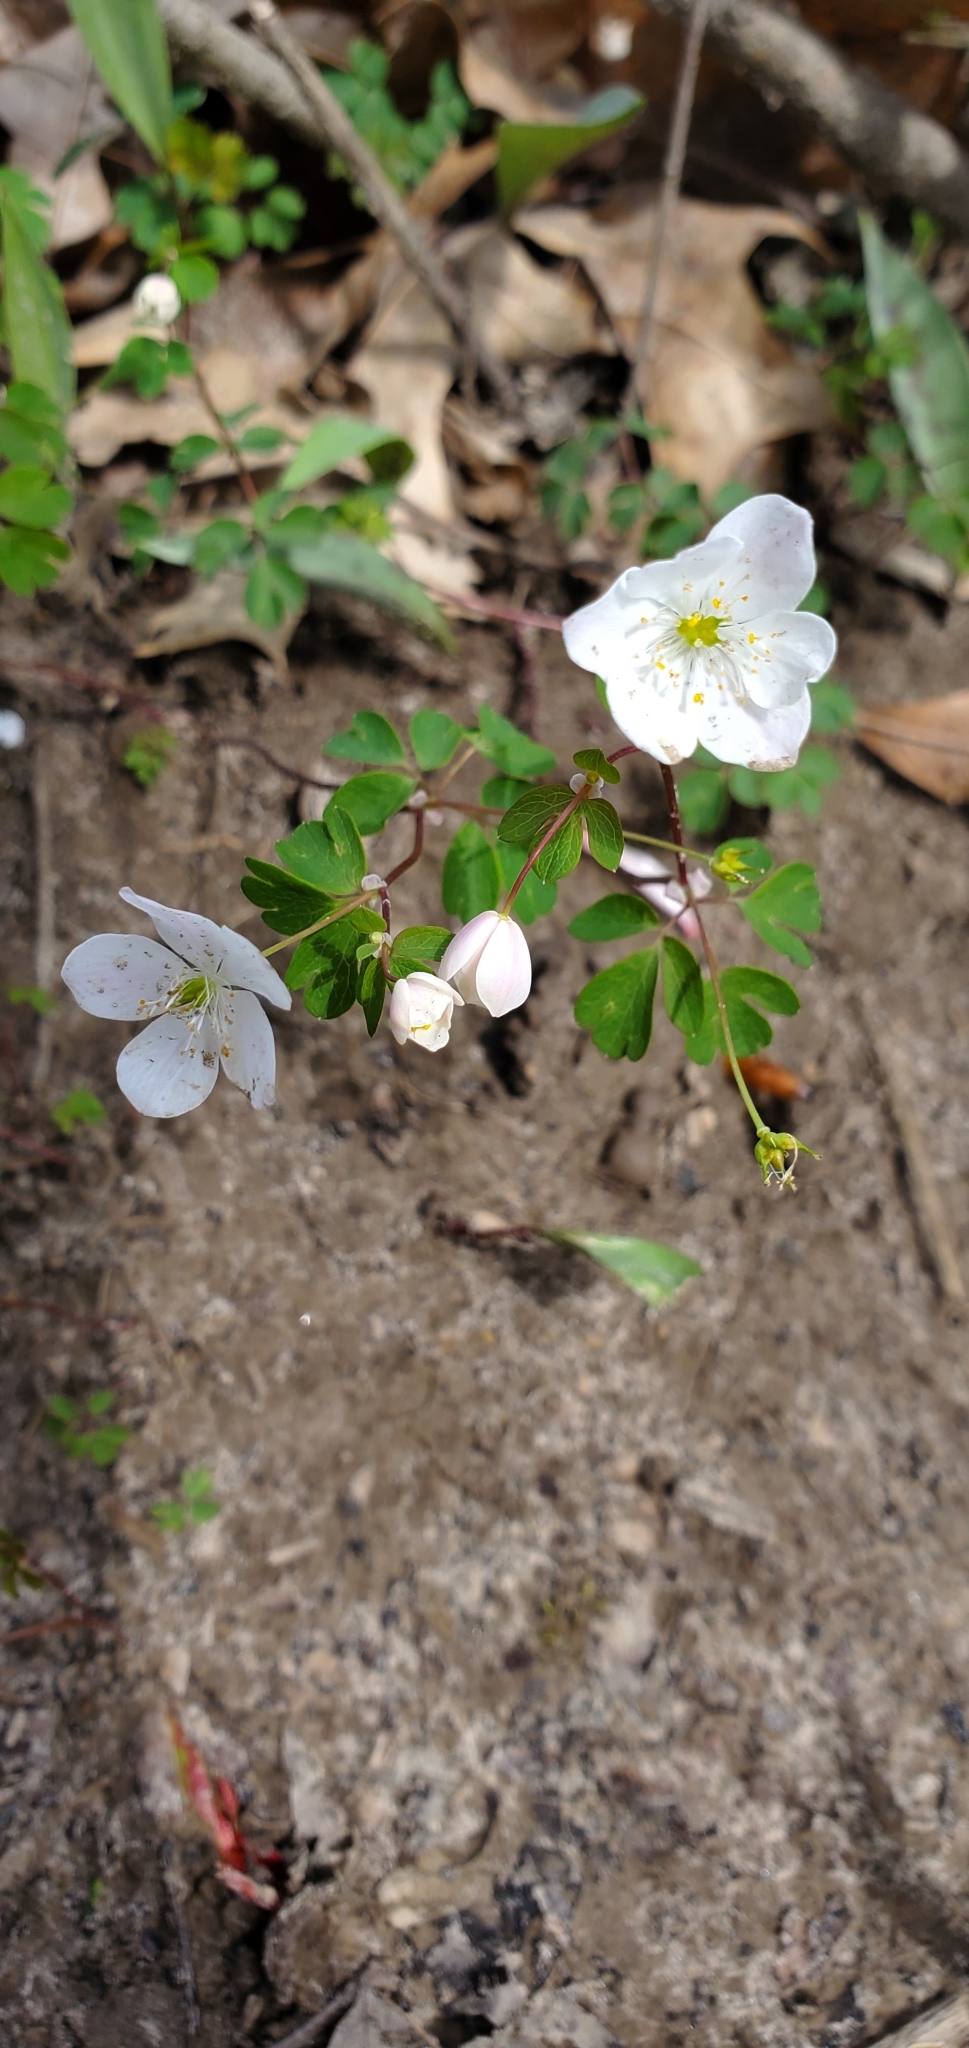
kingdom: Plantae
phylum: Tracheophyta
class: Magnoliopsida
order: Ranunculales
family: Ranunculaceae
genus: Enemion
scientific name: Enemion biternatum
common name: Eastern false rue-anemone
